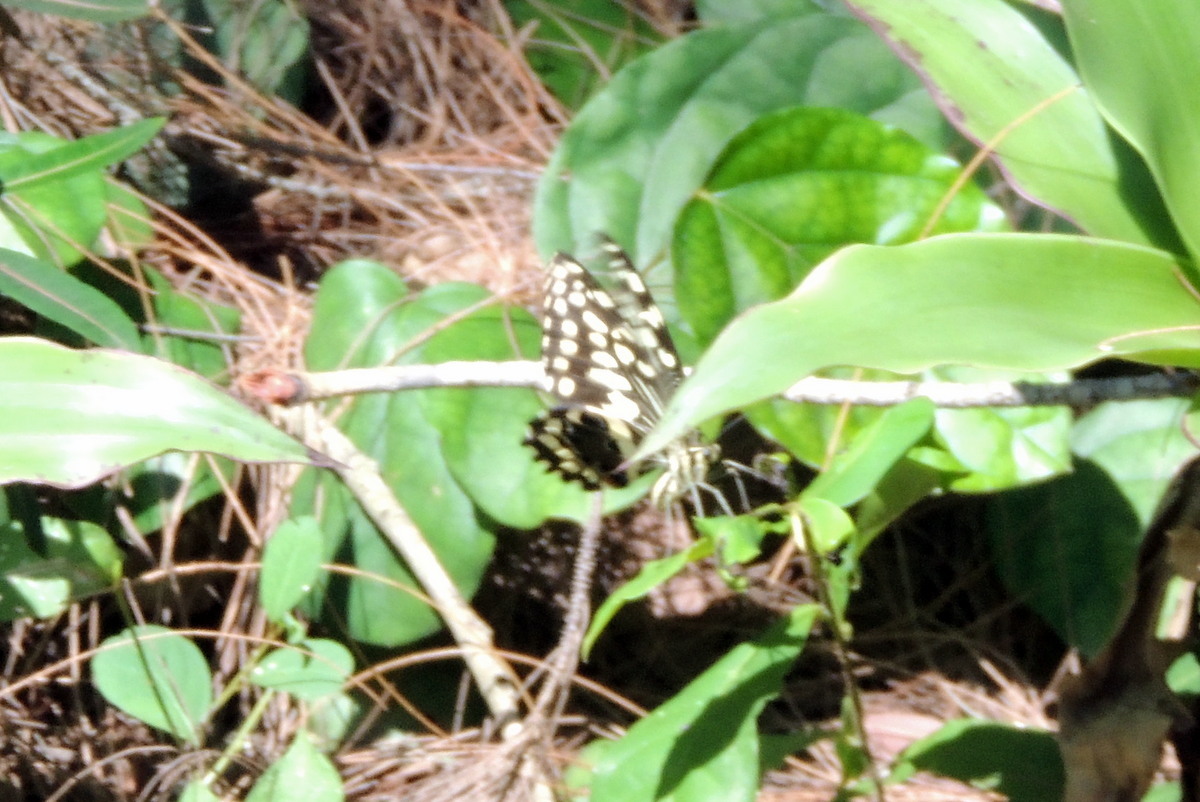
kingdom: Animalia
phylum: Arthropoda
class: Insecta
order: Lepidoptera
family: Papilionidae
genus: Papilio
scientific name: Papilio demodocus
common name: Christmas butterfly
